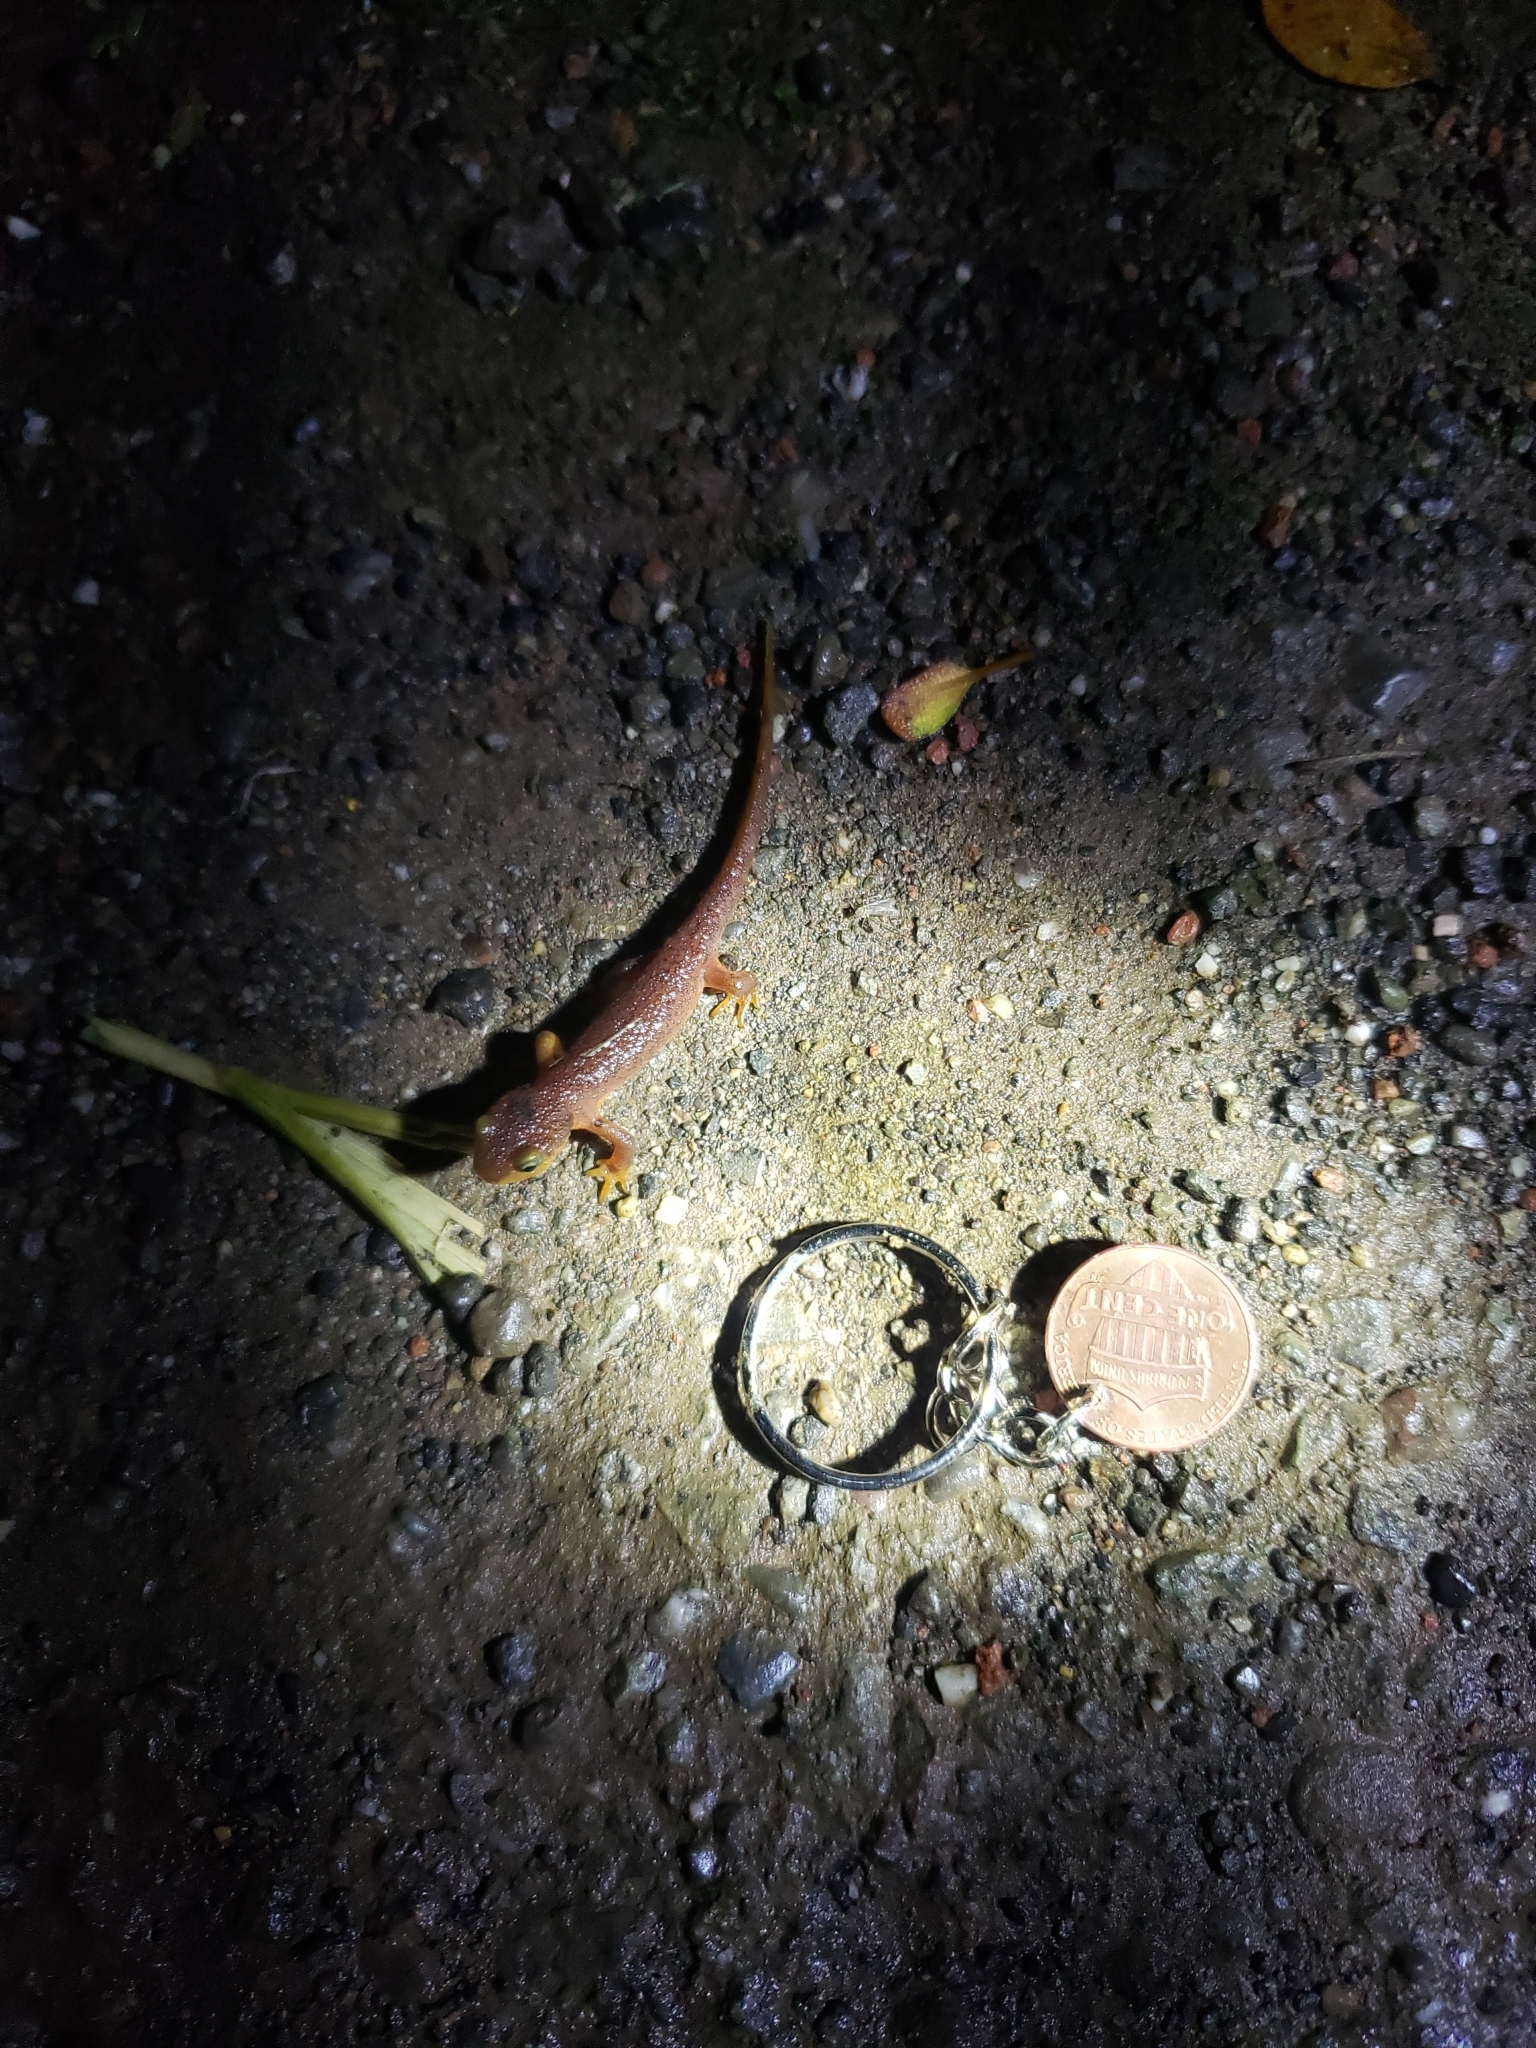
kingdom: Animalia
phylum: Chordata
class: Amphibia
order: Caudata
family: Salamandridae
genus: Taricha
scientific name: Taricha torosa
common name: California newt
